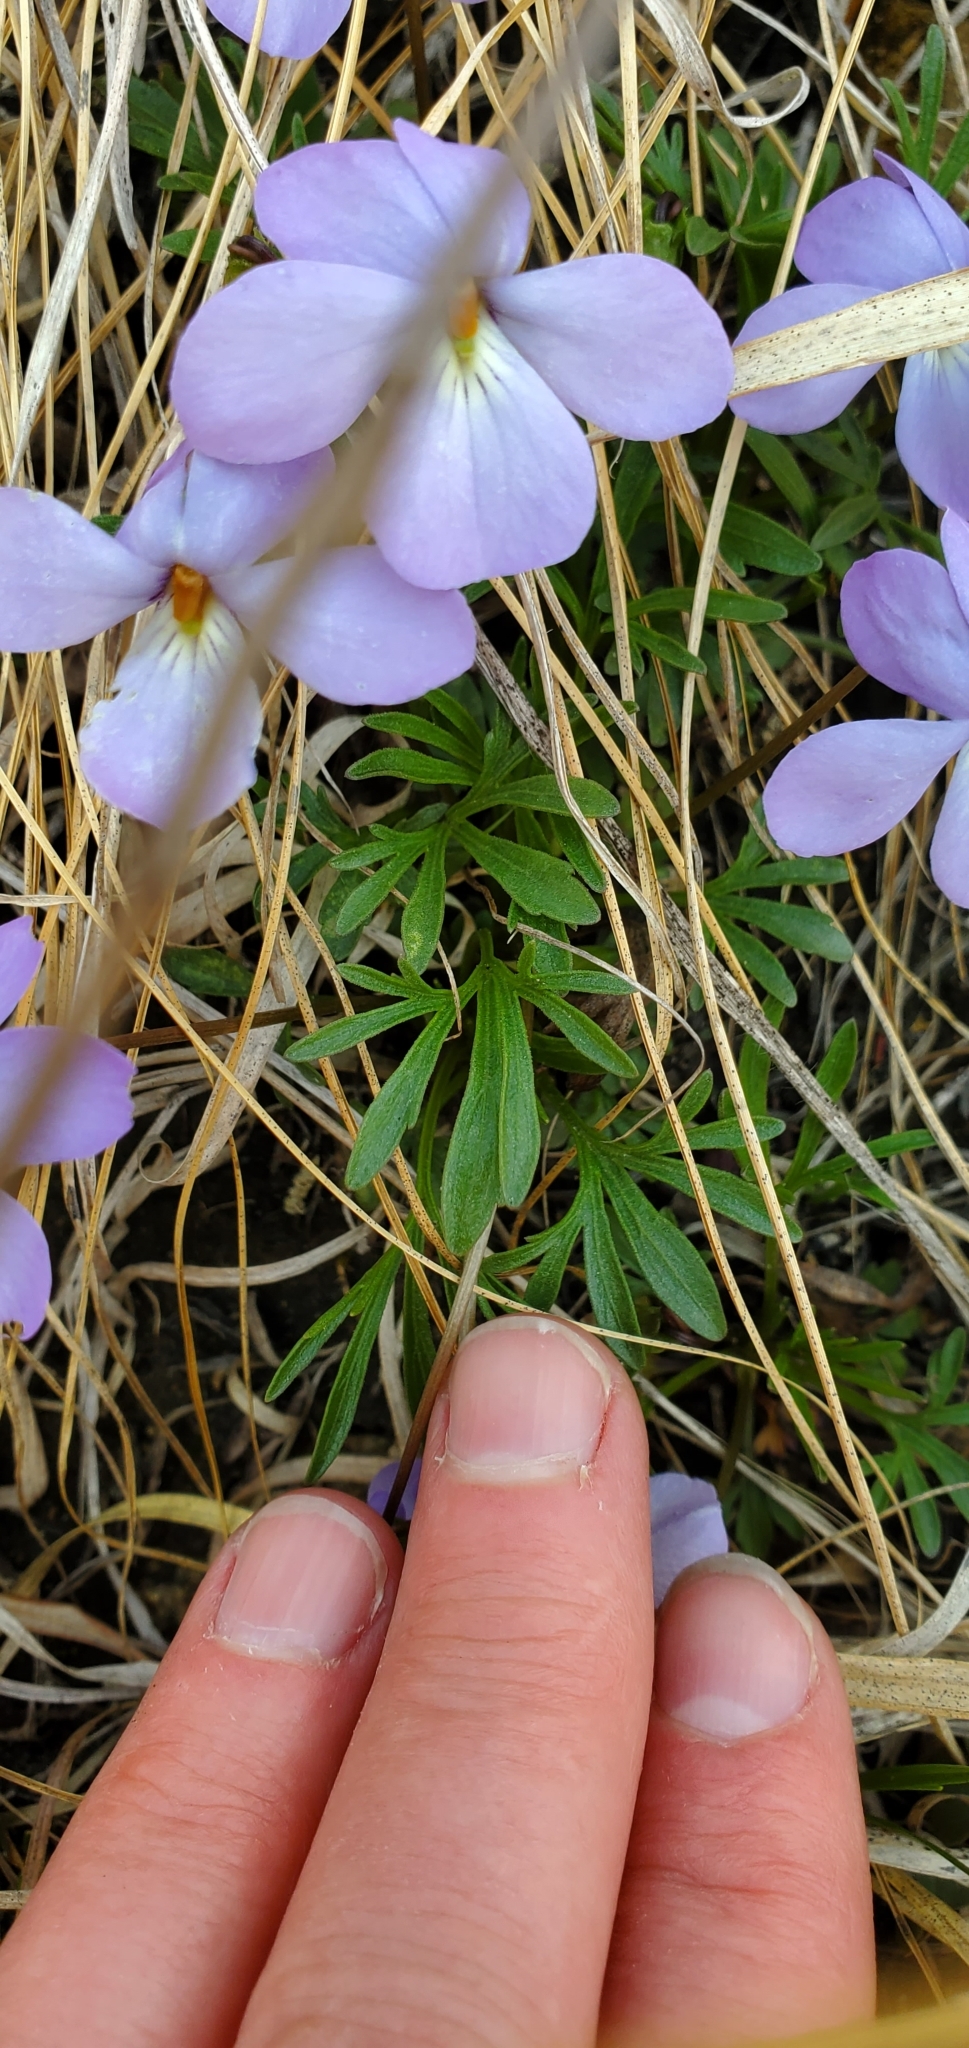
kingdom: Plantae
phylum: Tracheophyta
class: Magnoliopsida
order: Malpighiales
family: Violaceae
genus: Viola
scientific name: Viola pedata
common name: Pansy violet
